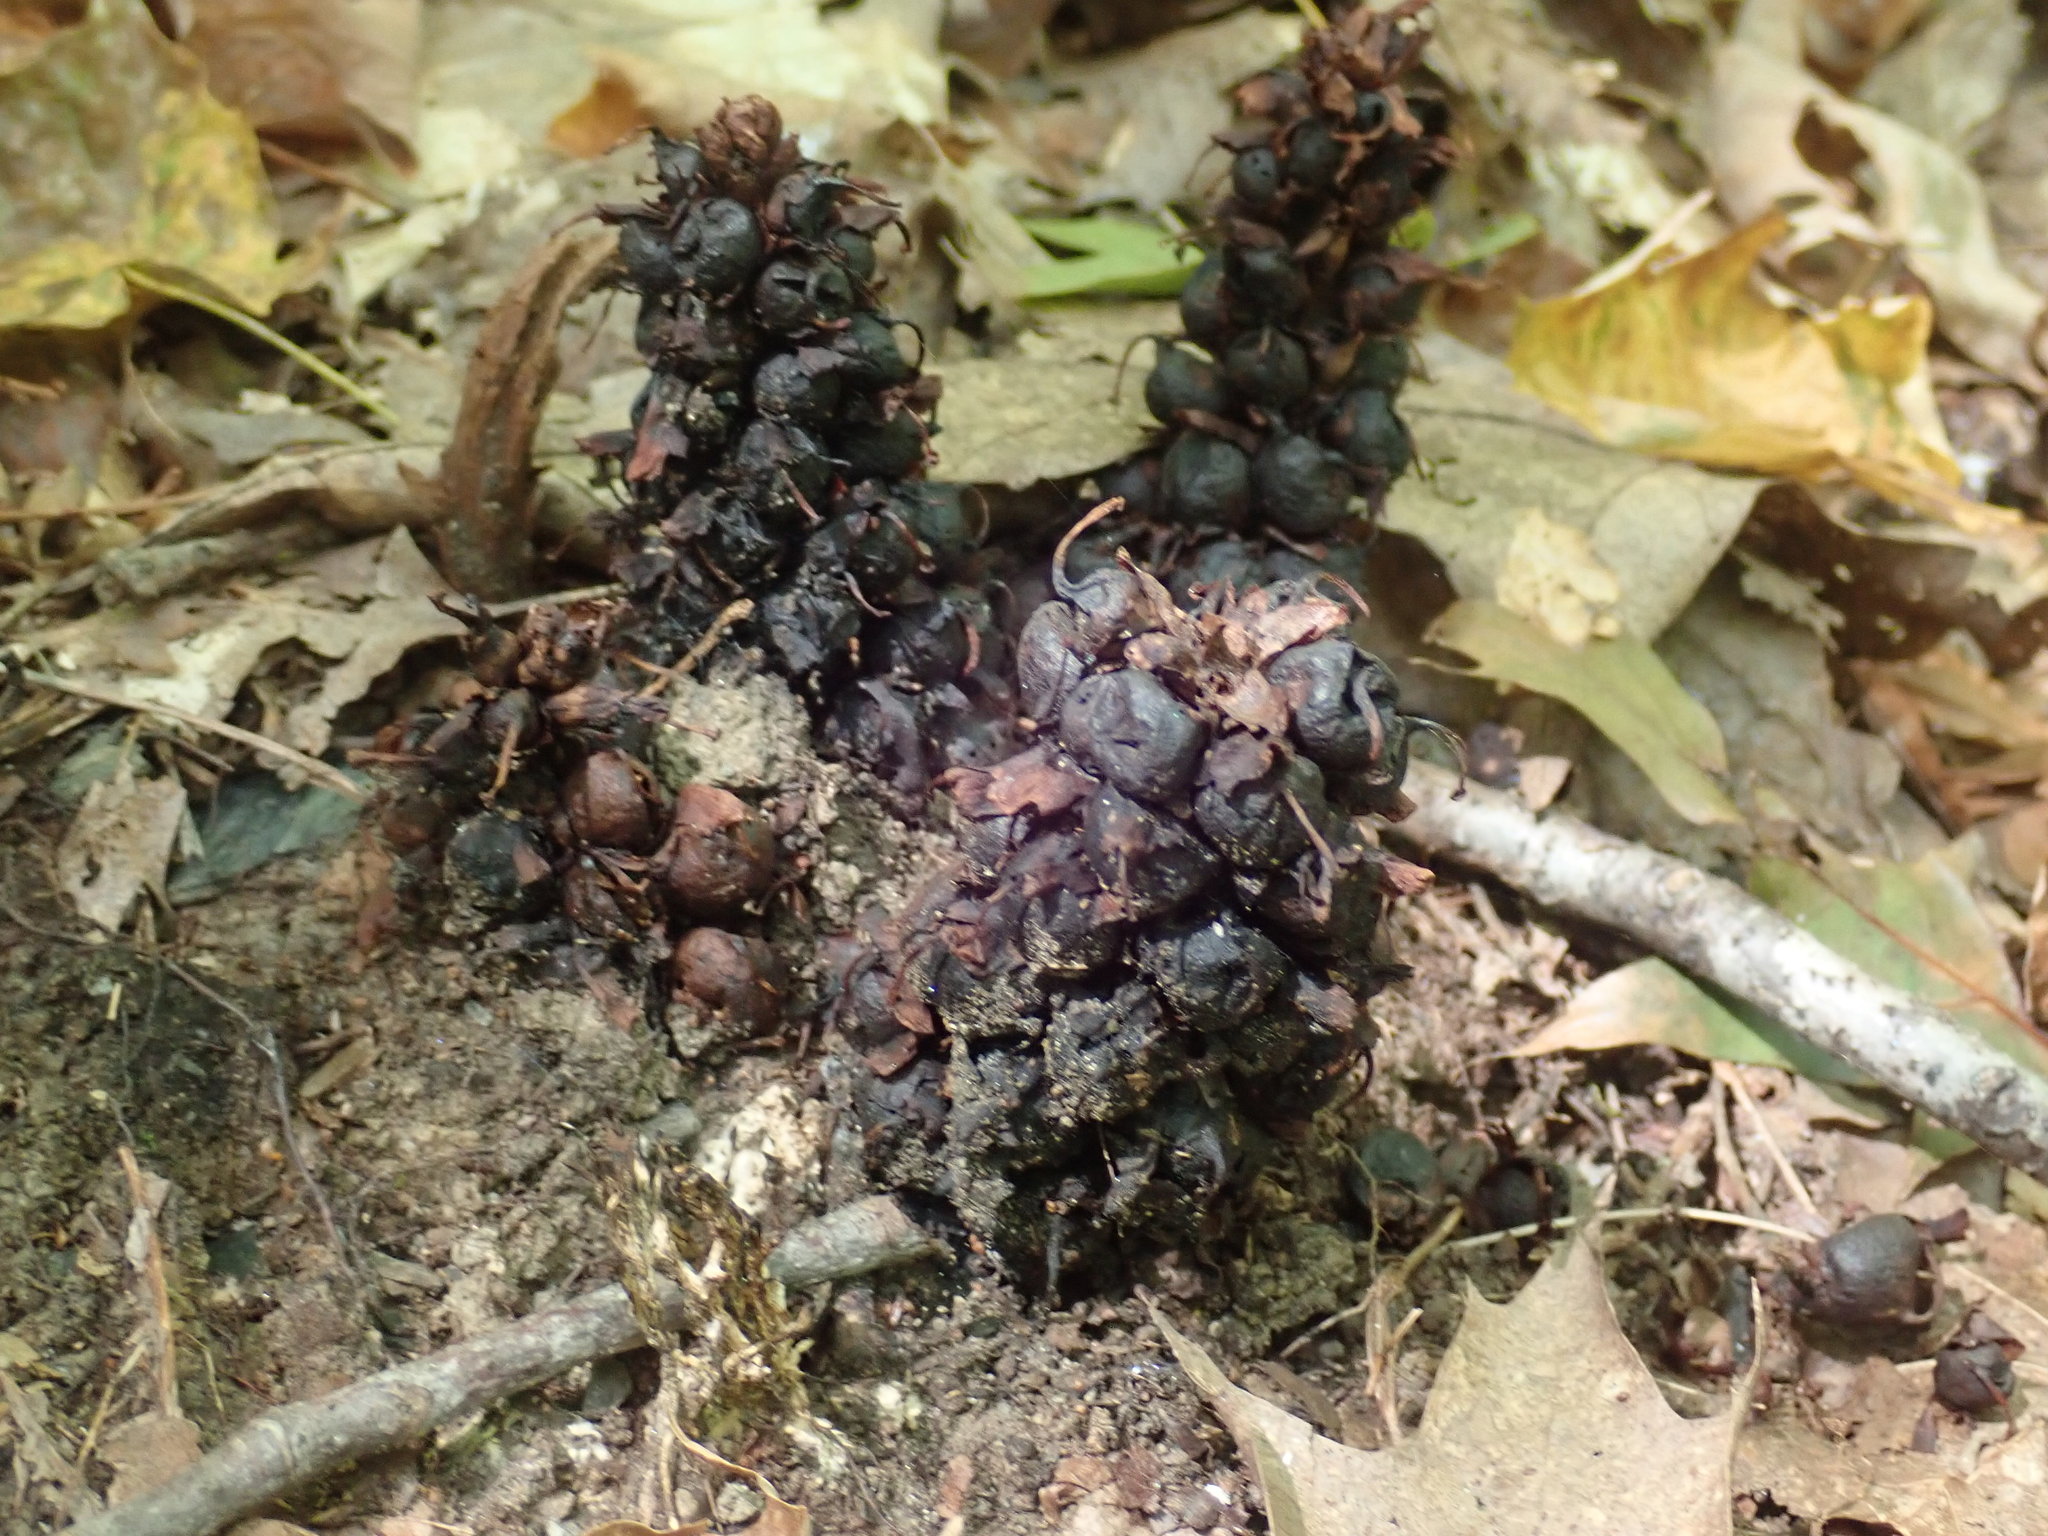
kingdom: Plantae
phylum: Tracheophyta
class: Magnoliopsida
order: Lamiales
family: Orobanchaceae
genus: Conopholis
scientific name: Conopholis americana
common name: American cancer-root
